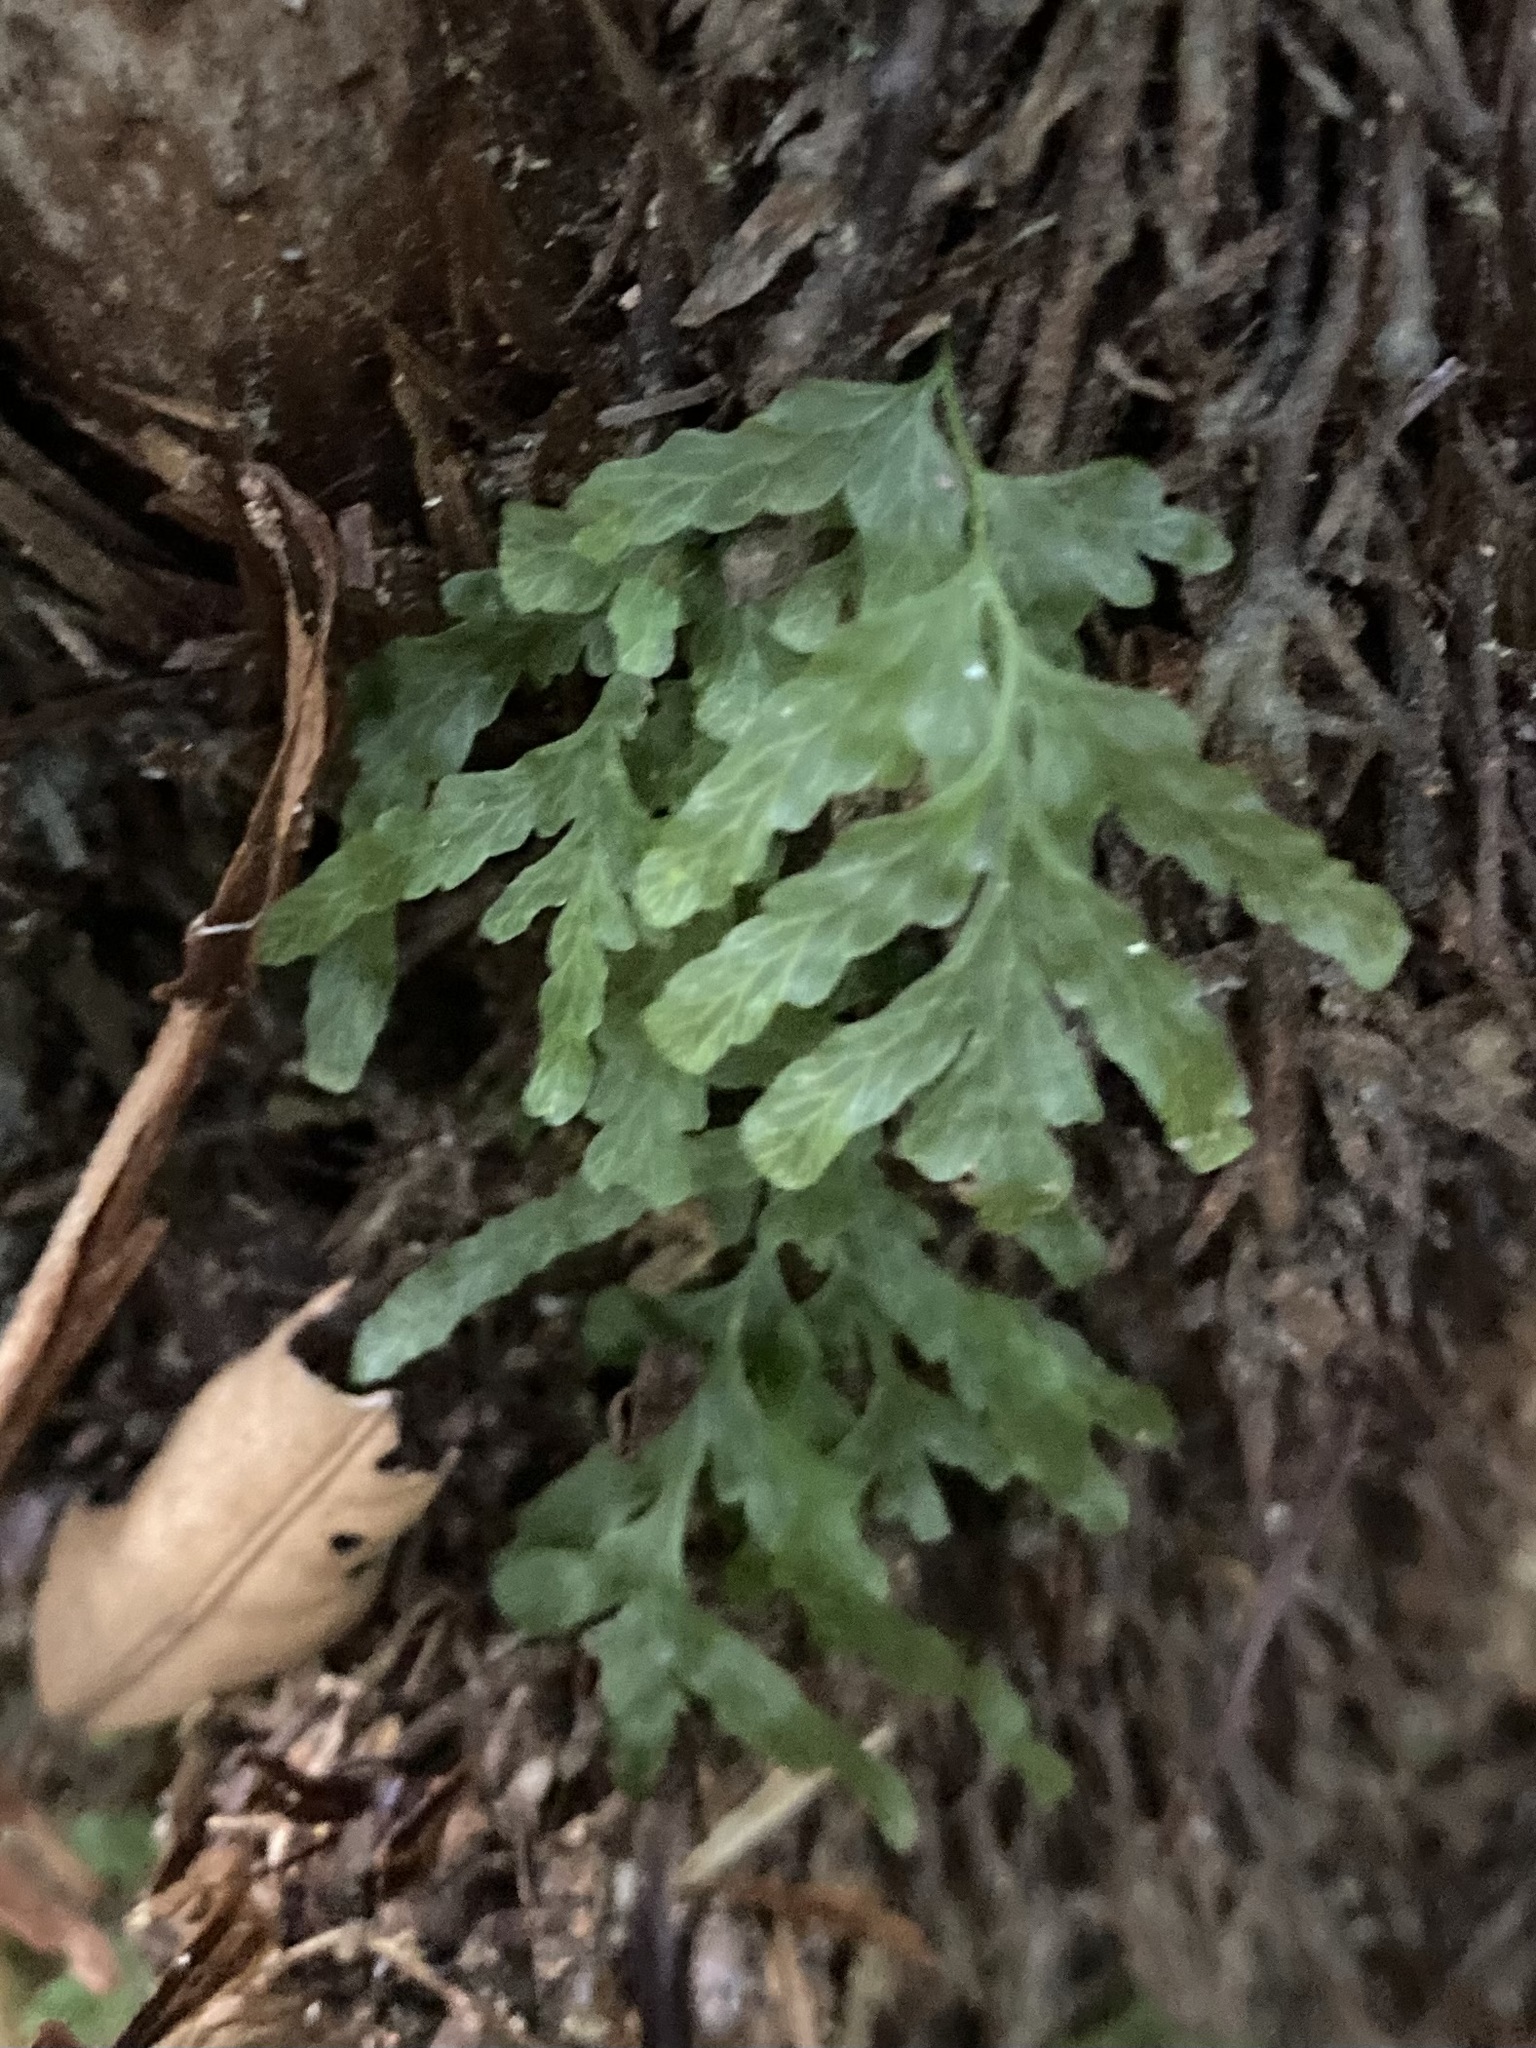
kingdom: Plantae
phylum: Tracheophyta
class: Polypodiopsida
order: Hymenophyllales
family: Hymenophyllaceae
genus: Polyphlebium
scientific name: Polyphlebium venosum
